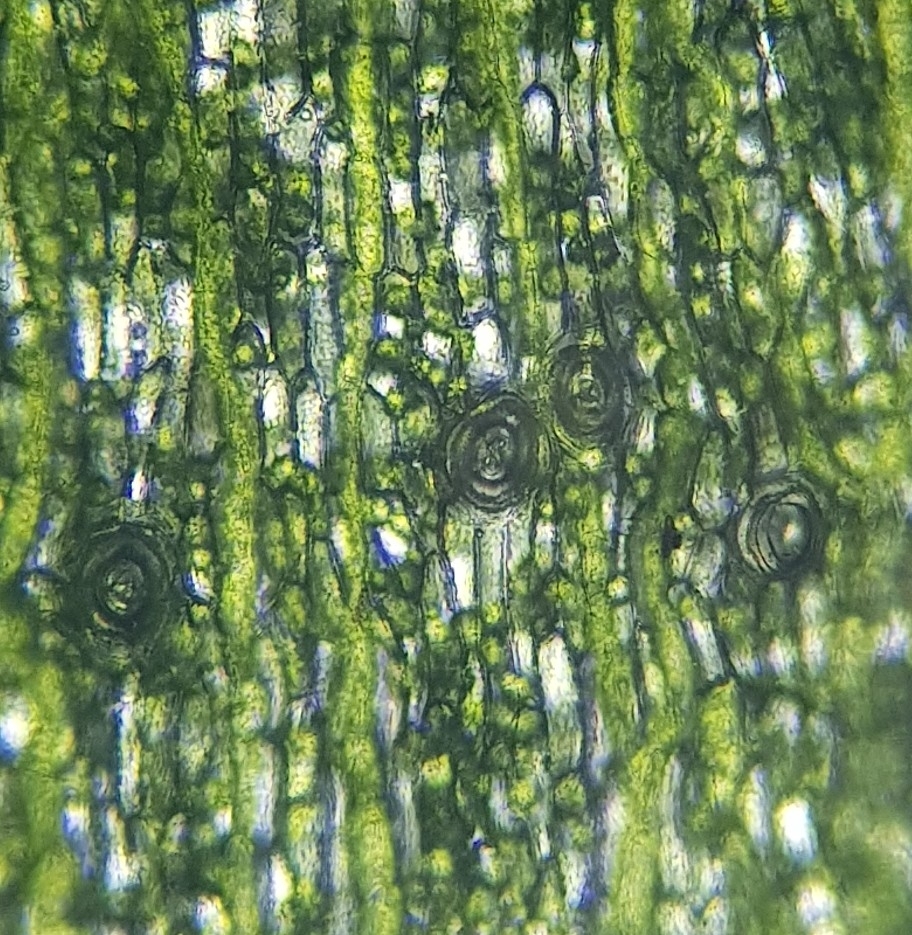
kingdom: Plantae
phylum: Marchantiophyta
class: Marchantiopsida
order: Marchantiales
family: Marchantiaceae
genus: Marchantia
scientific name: Marchantia quadrata
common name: Narrow mushroom-headed liverwort
